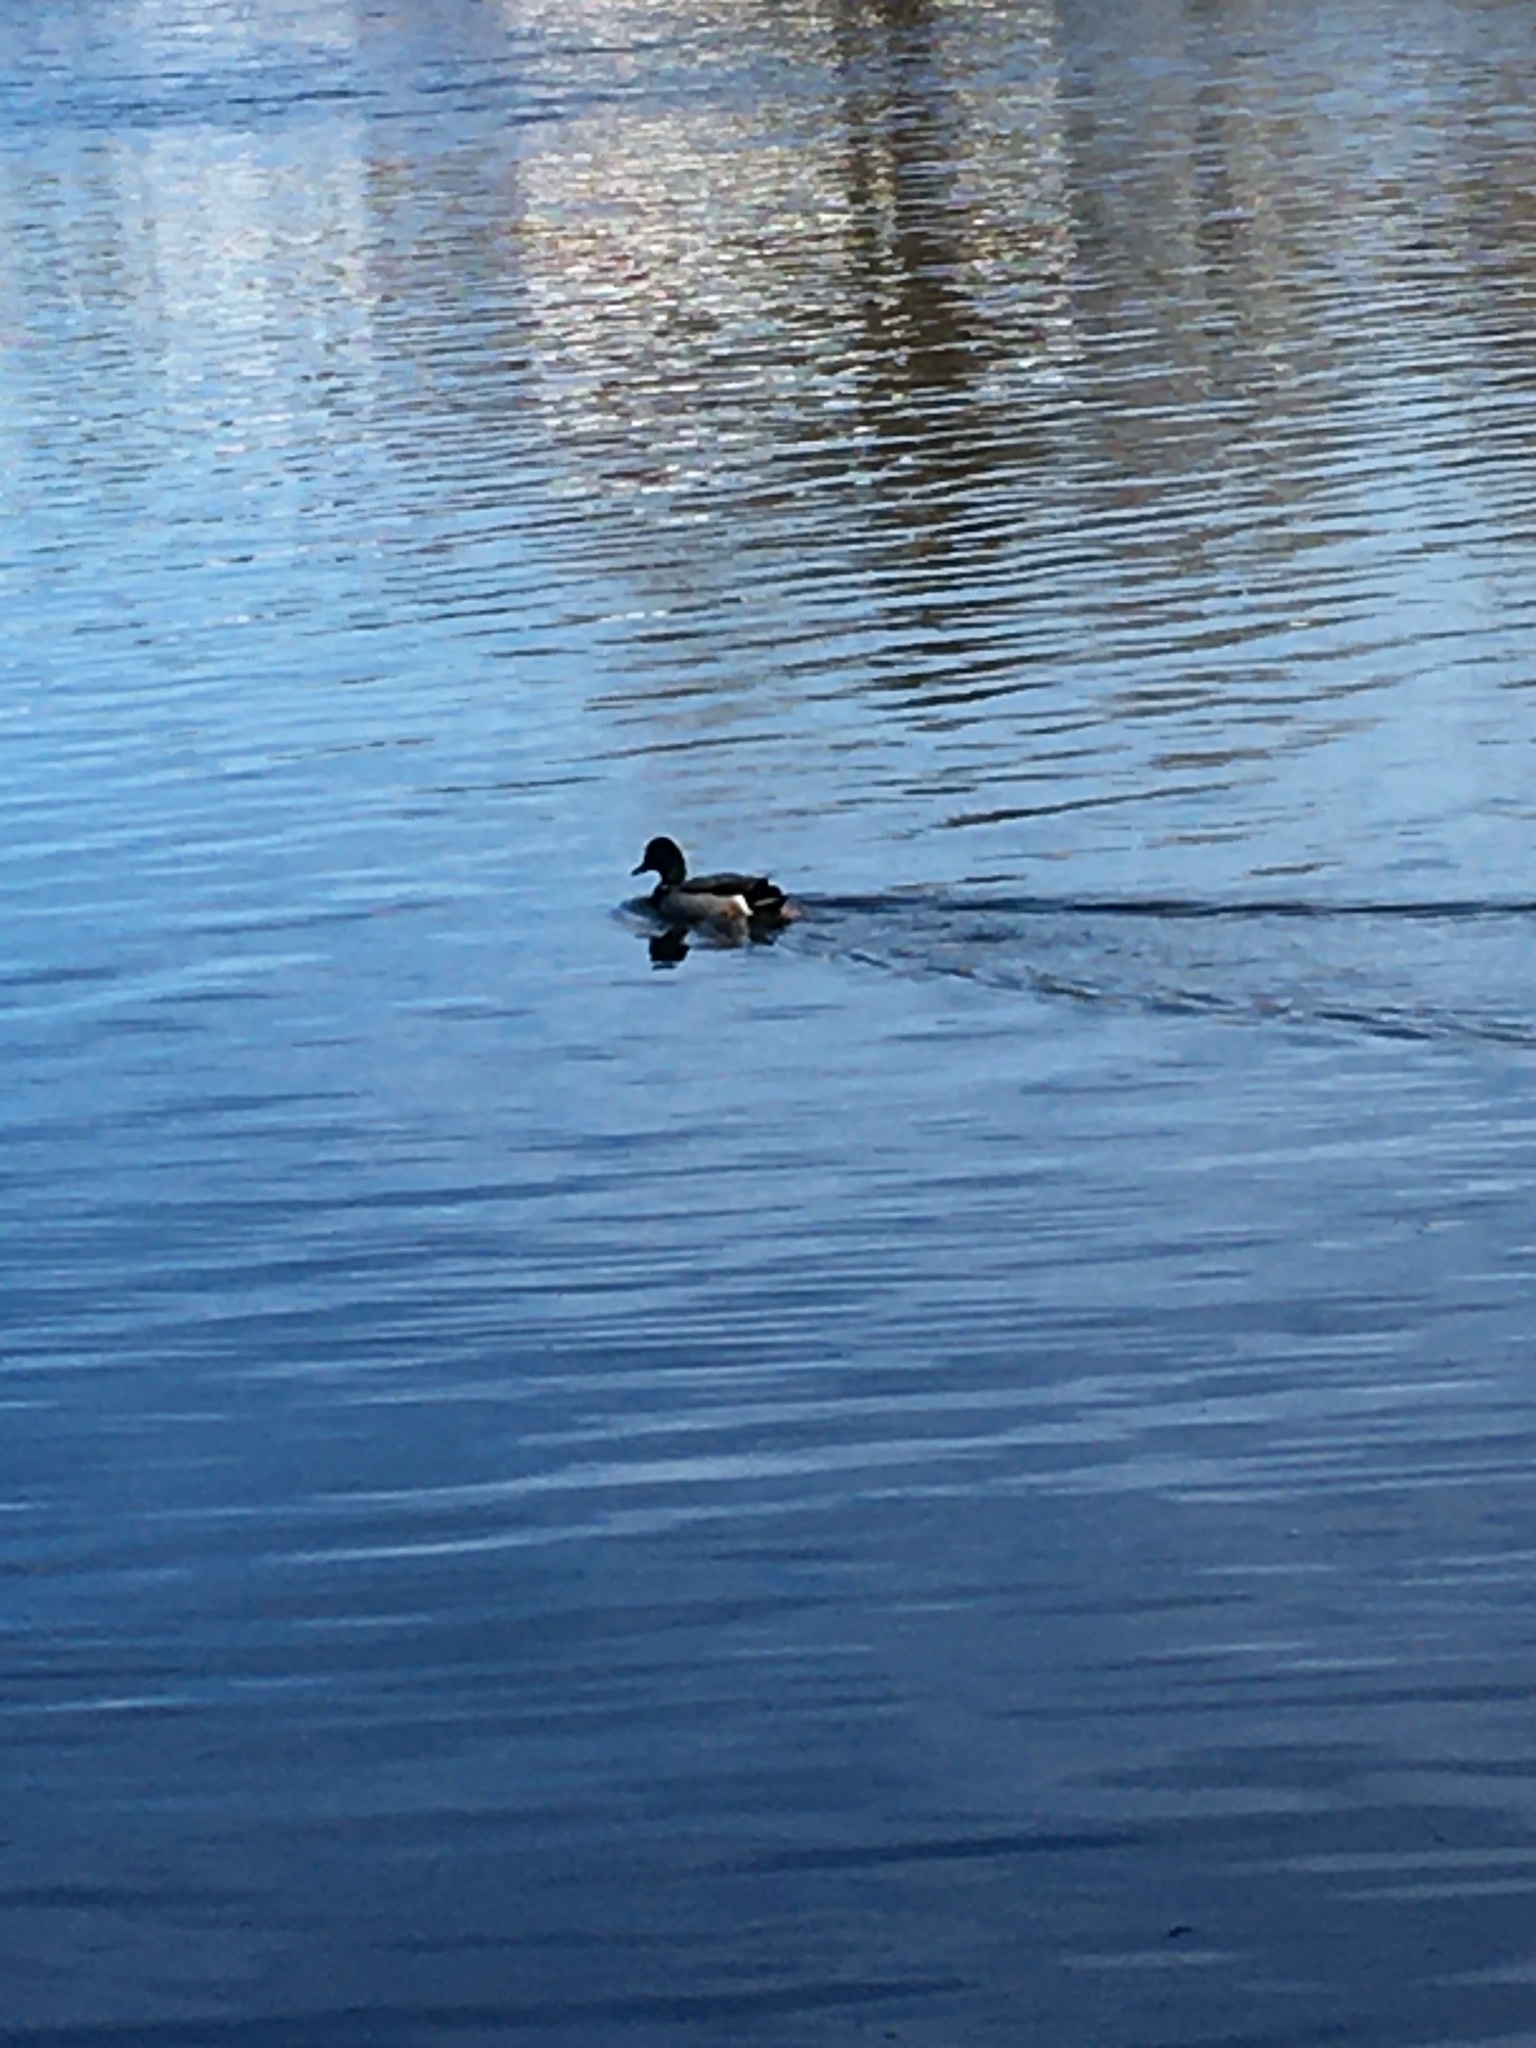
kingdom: Animalia
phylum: Chordata
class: Aves
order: Anseriformes
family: Anatidae
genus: Anas
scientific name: Anas platyrhynchos
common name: Mallard
